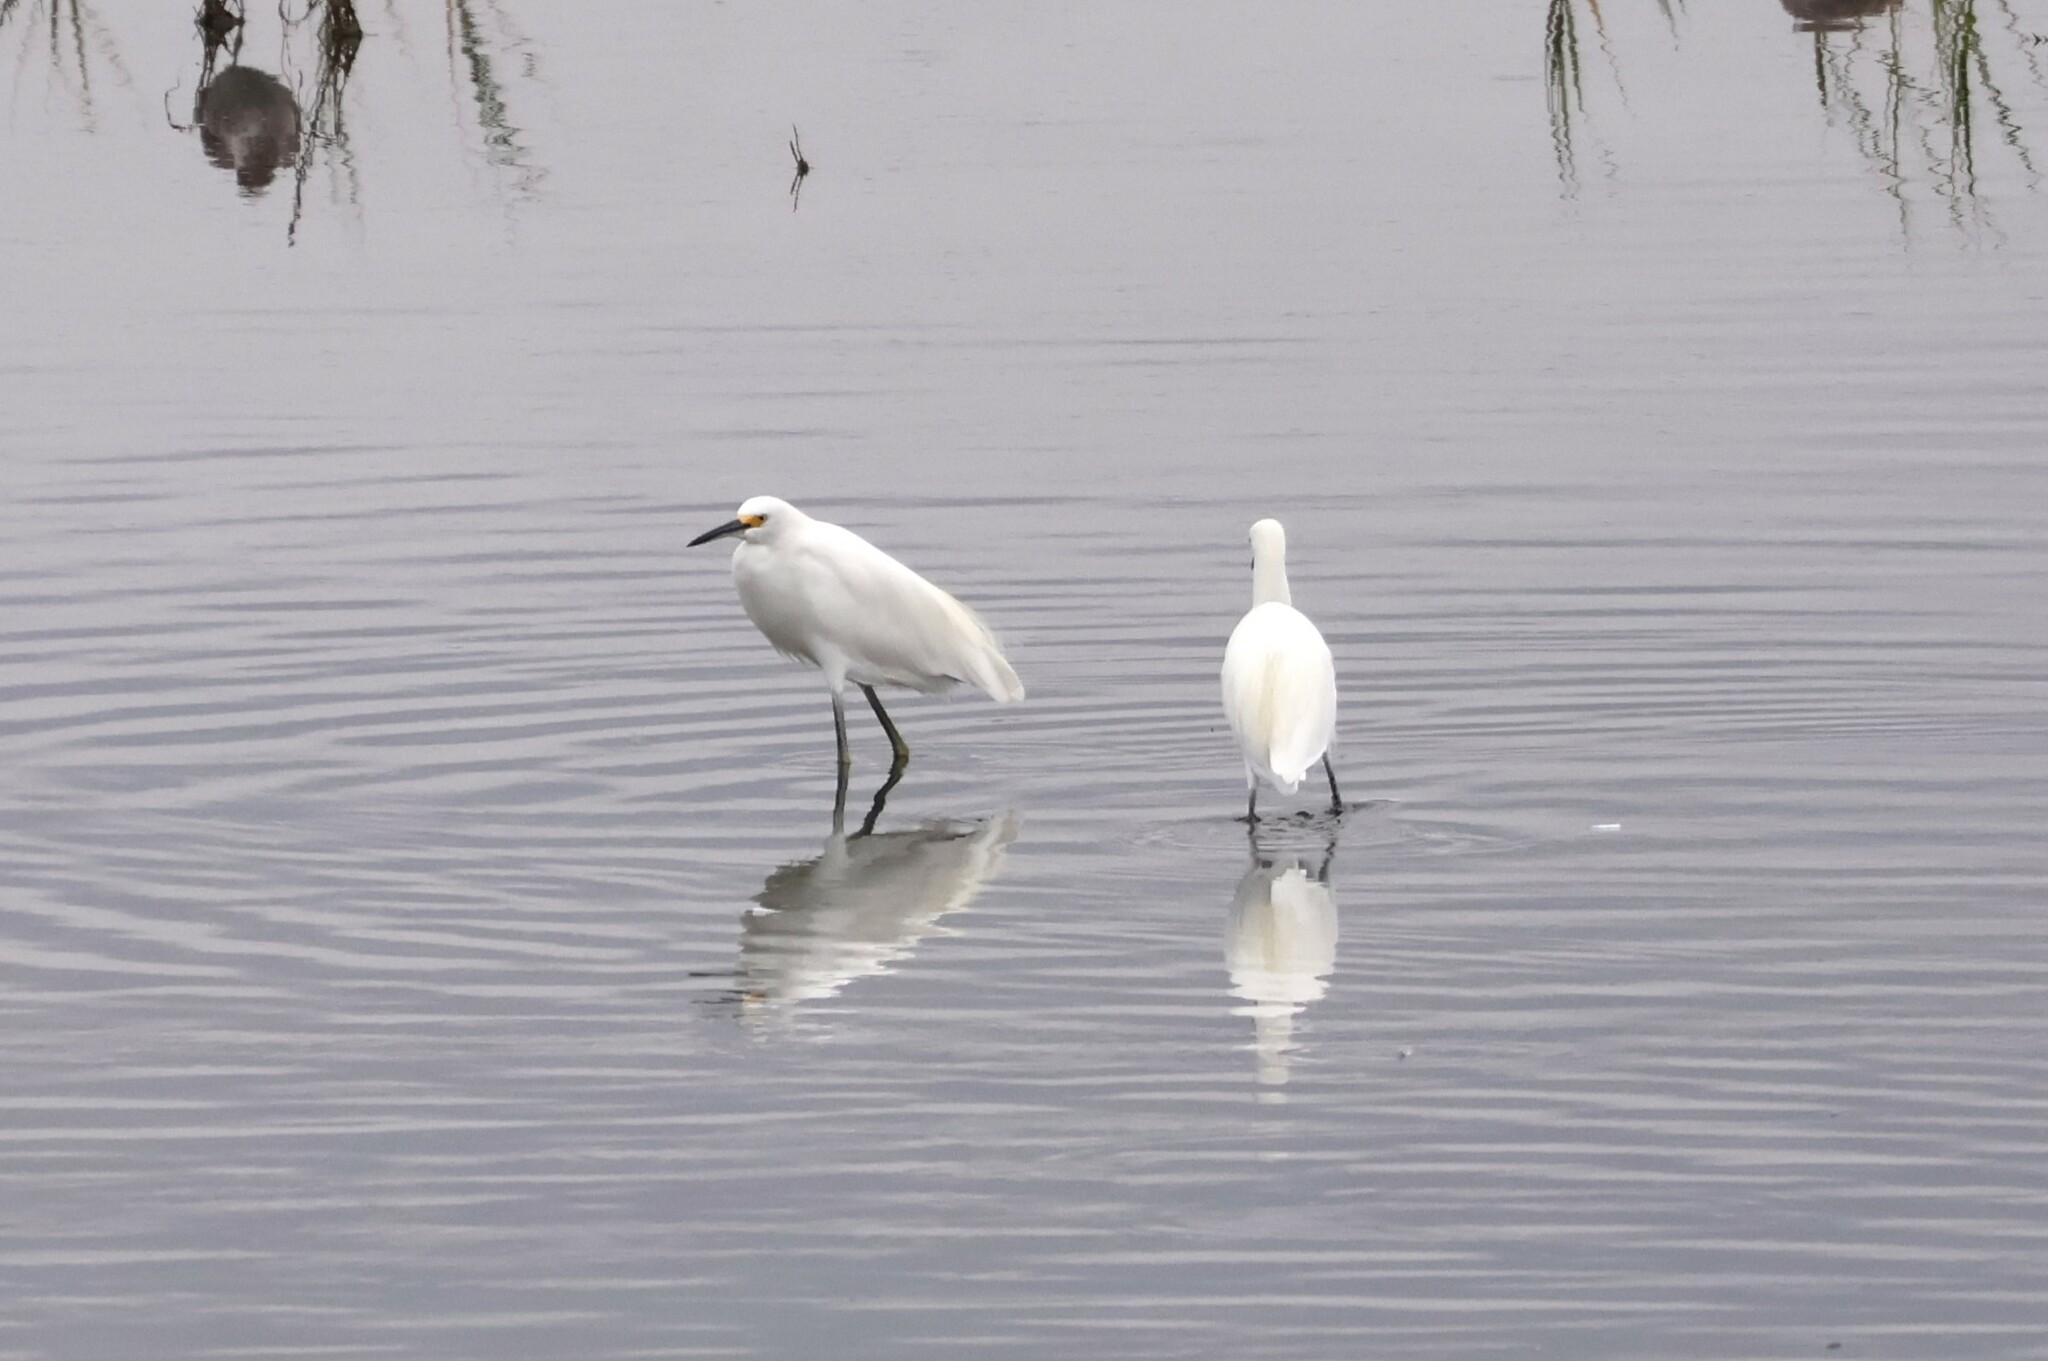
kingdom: Animalia
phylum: Chordata
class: Aves
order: Pelecaniformes
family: Ardeidae
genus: Egretta
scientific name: Egretta thula
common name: Snowy egret
